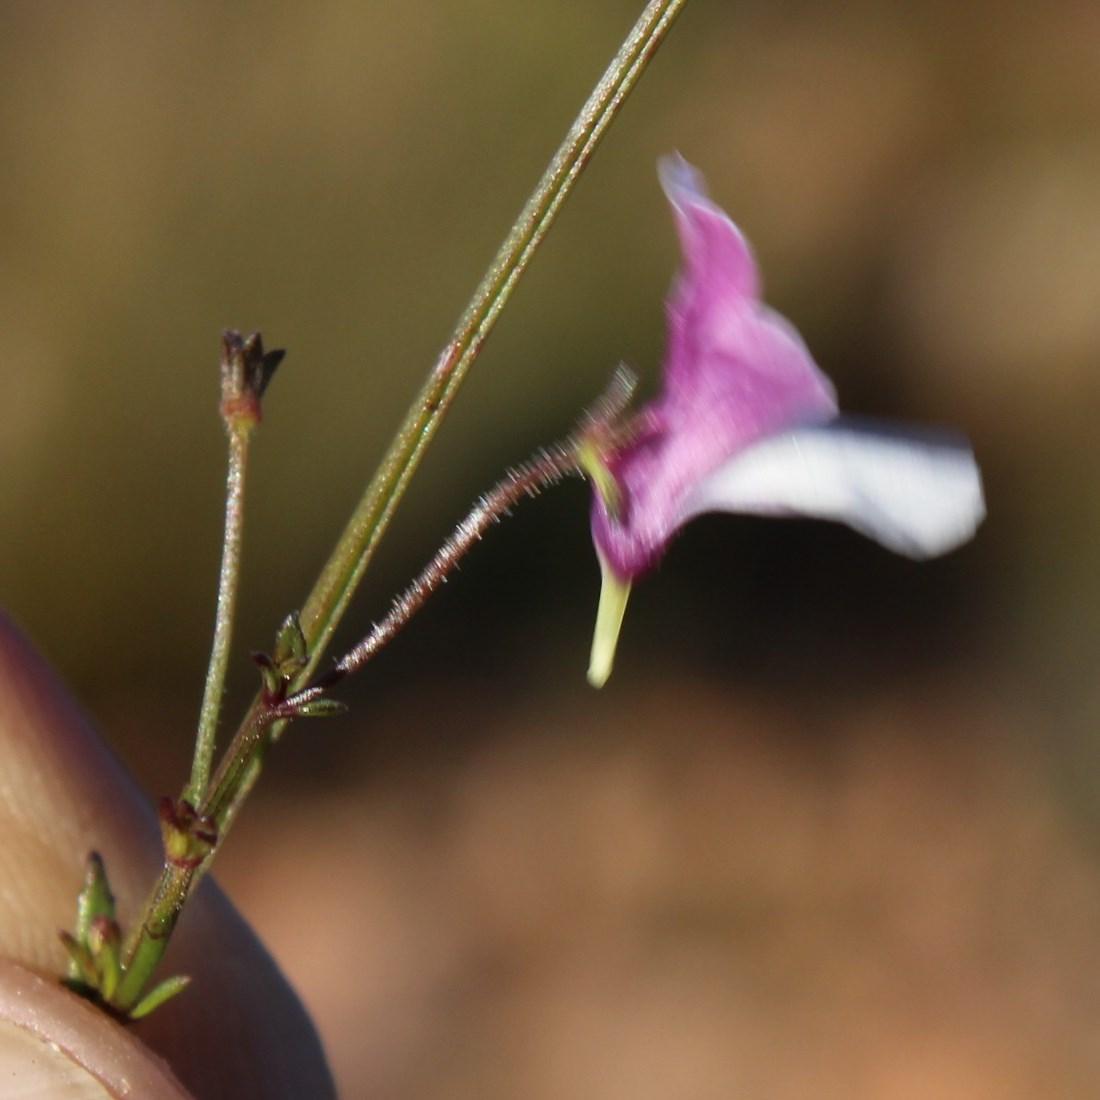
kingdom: Plantae
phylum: Tracheophyta
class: Magnoliopsida
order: Lamiales
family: Scrophulariaceae
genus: Nemesia
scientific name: Nemesia affinis
